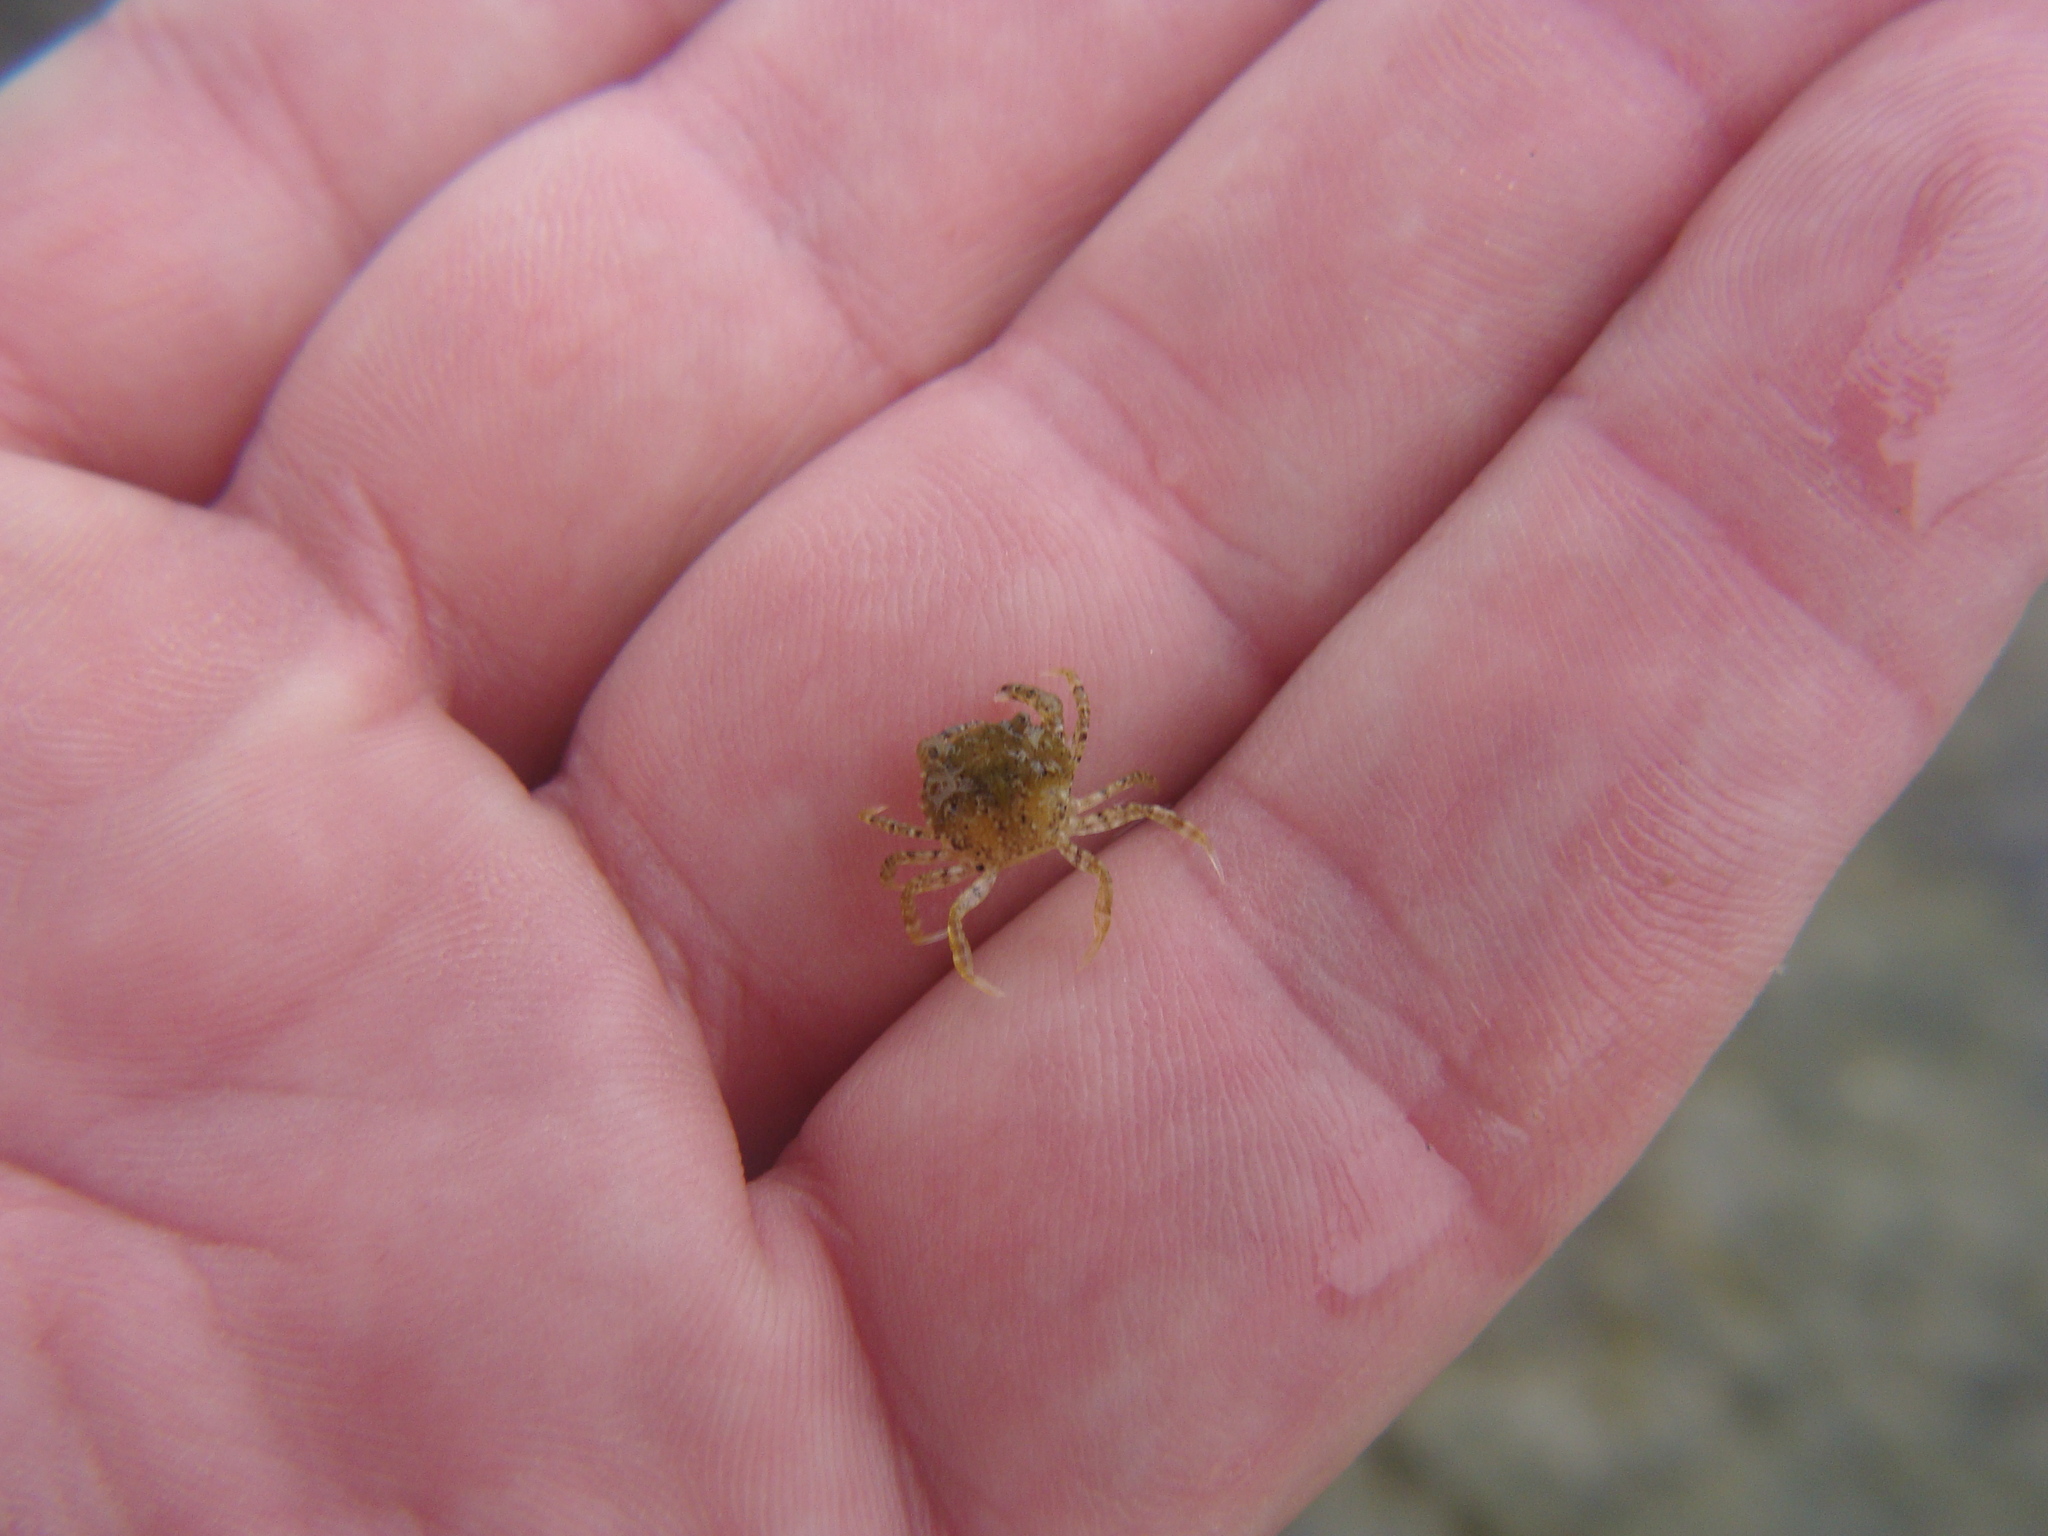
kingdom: Animalia
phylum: Arthropoda
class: Malacostraca
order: Decapoda
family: Carcinidae
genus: Carcinus
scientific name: Carcinus maenas
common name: European green crab
